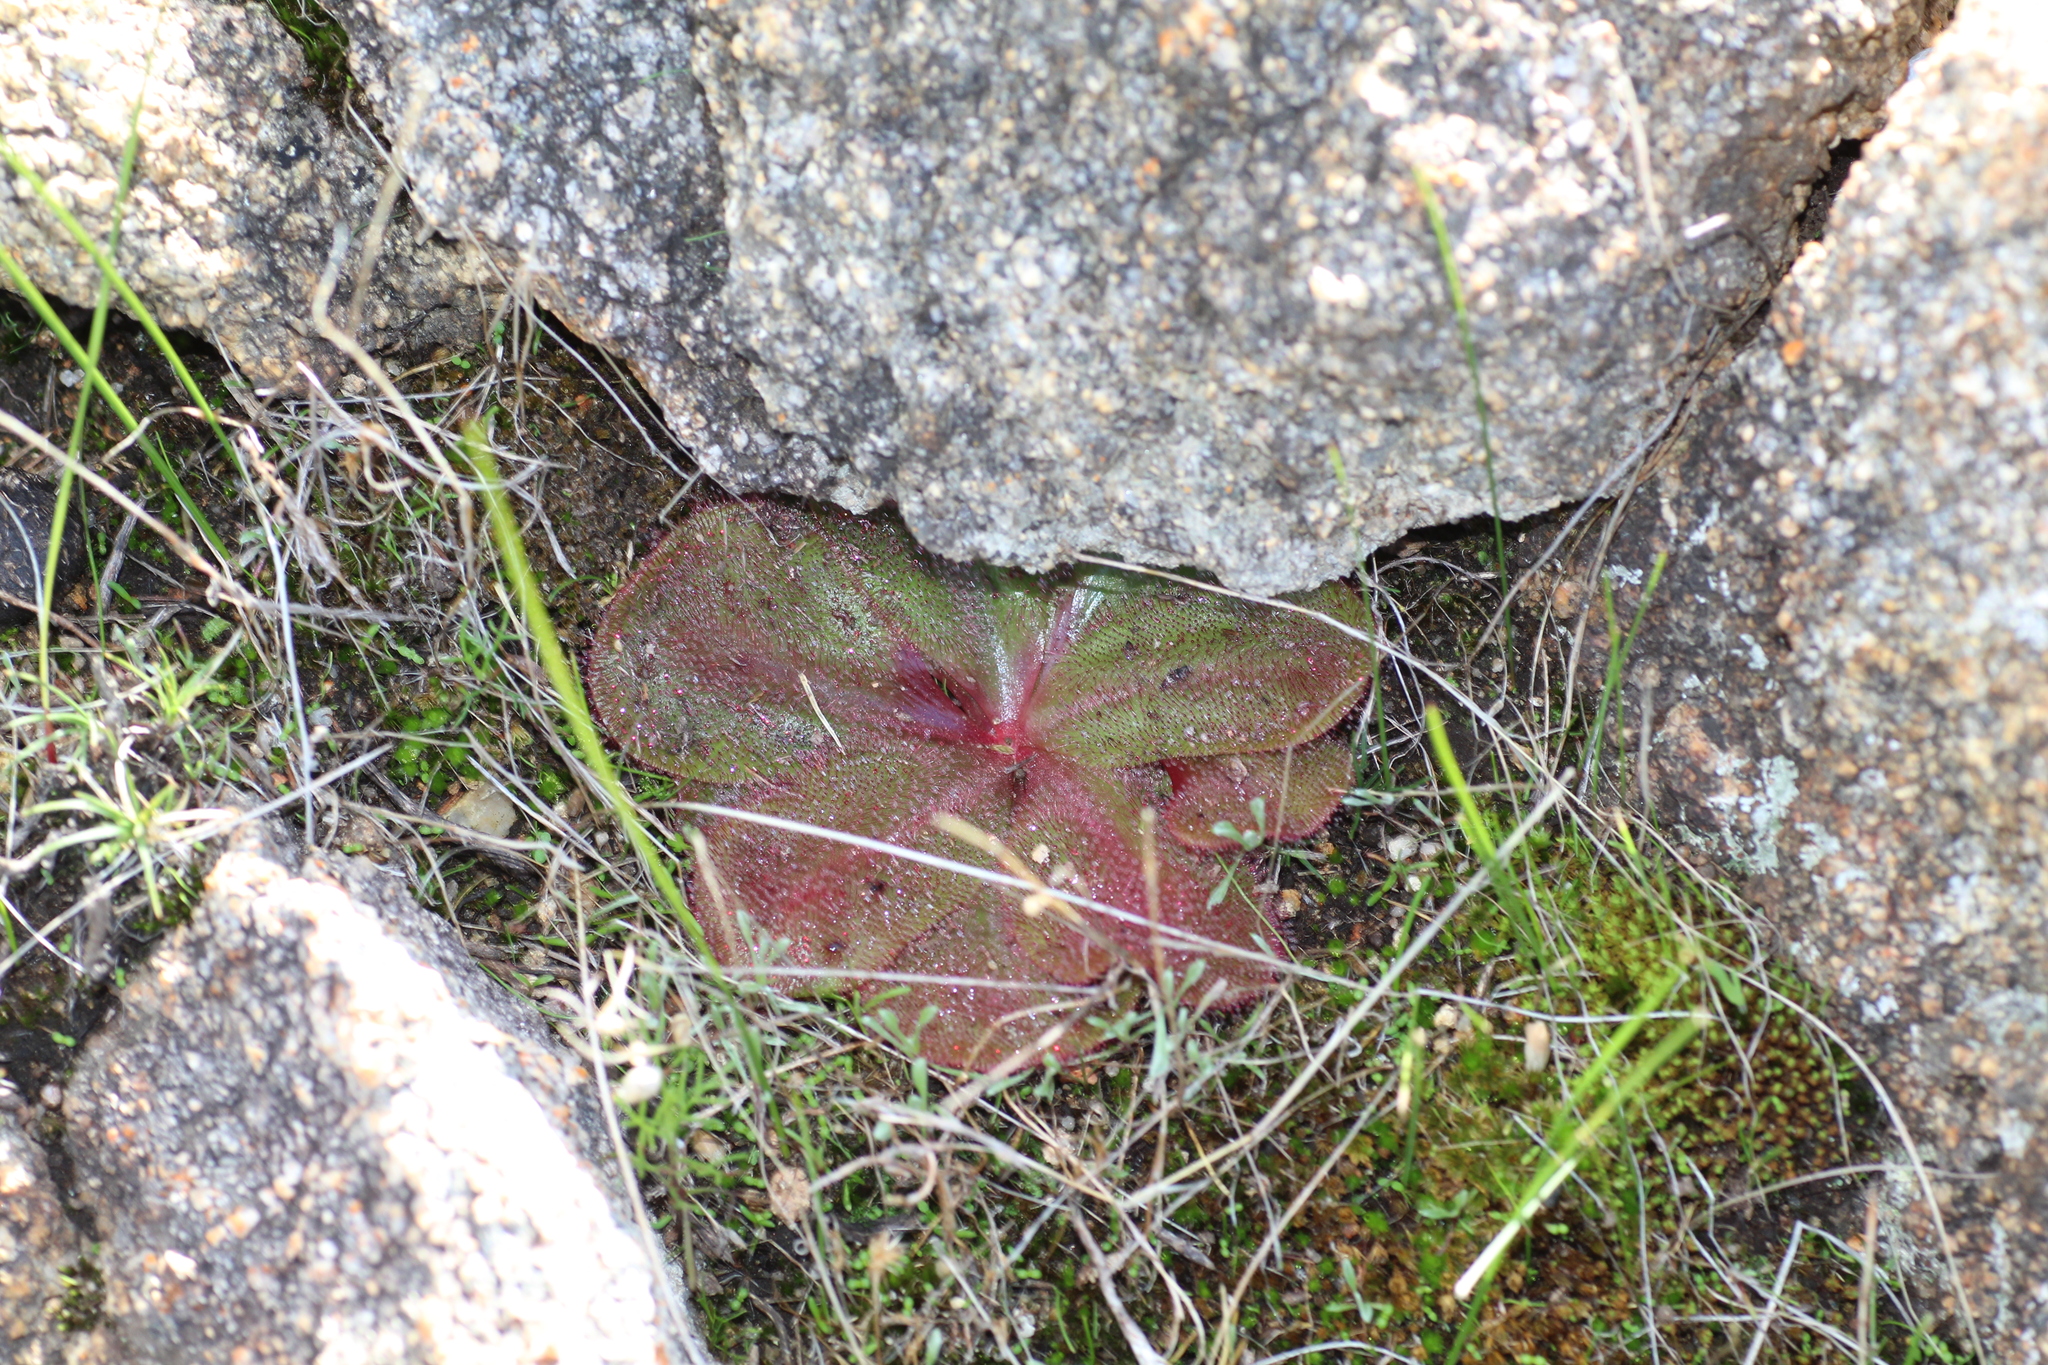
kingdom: Plantae
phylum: Tracheophyta
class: Magnoliopsida
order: Caryophyllales
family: Droseraceae
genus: Drosera
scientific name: Drosera erythrorhiza
